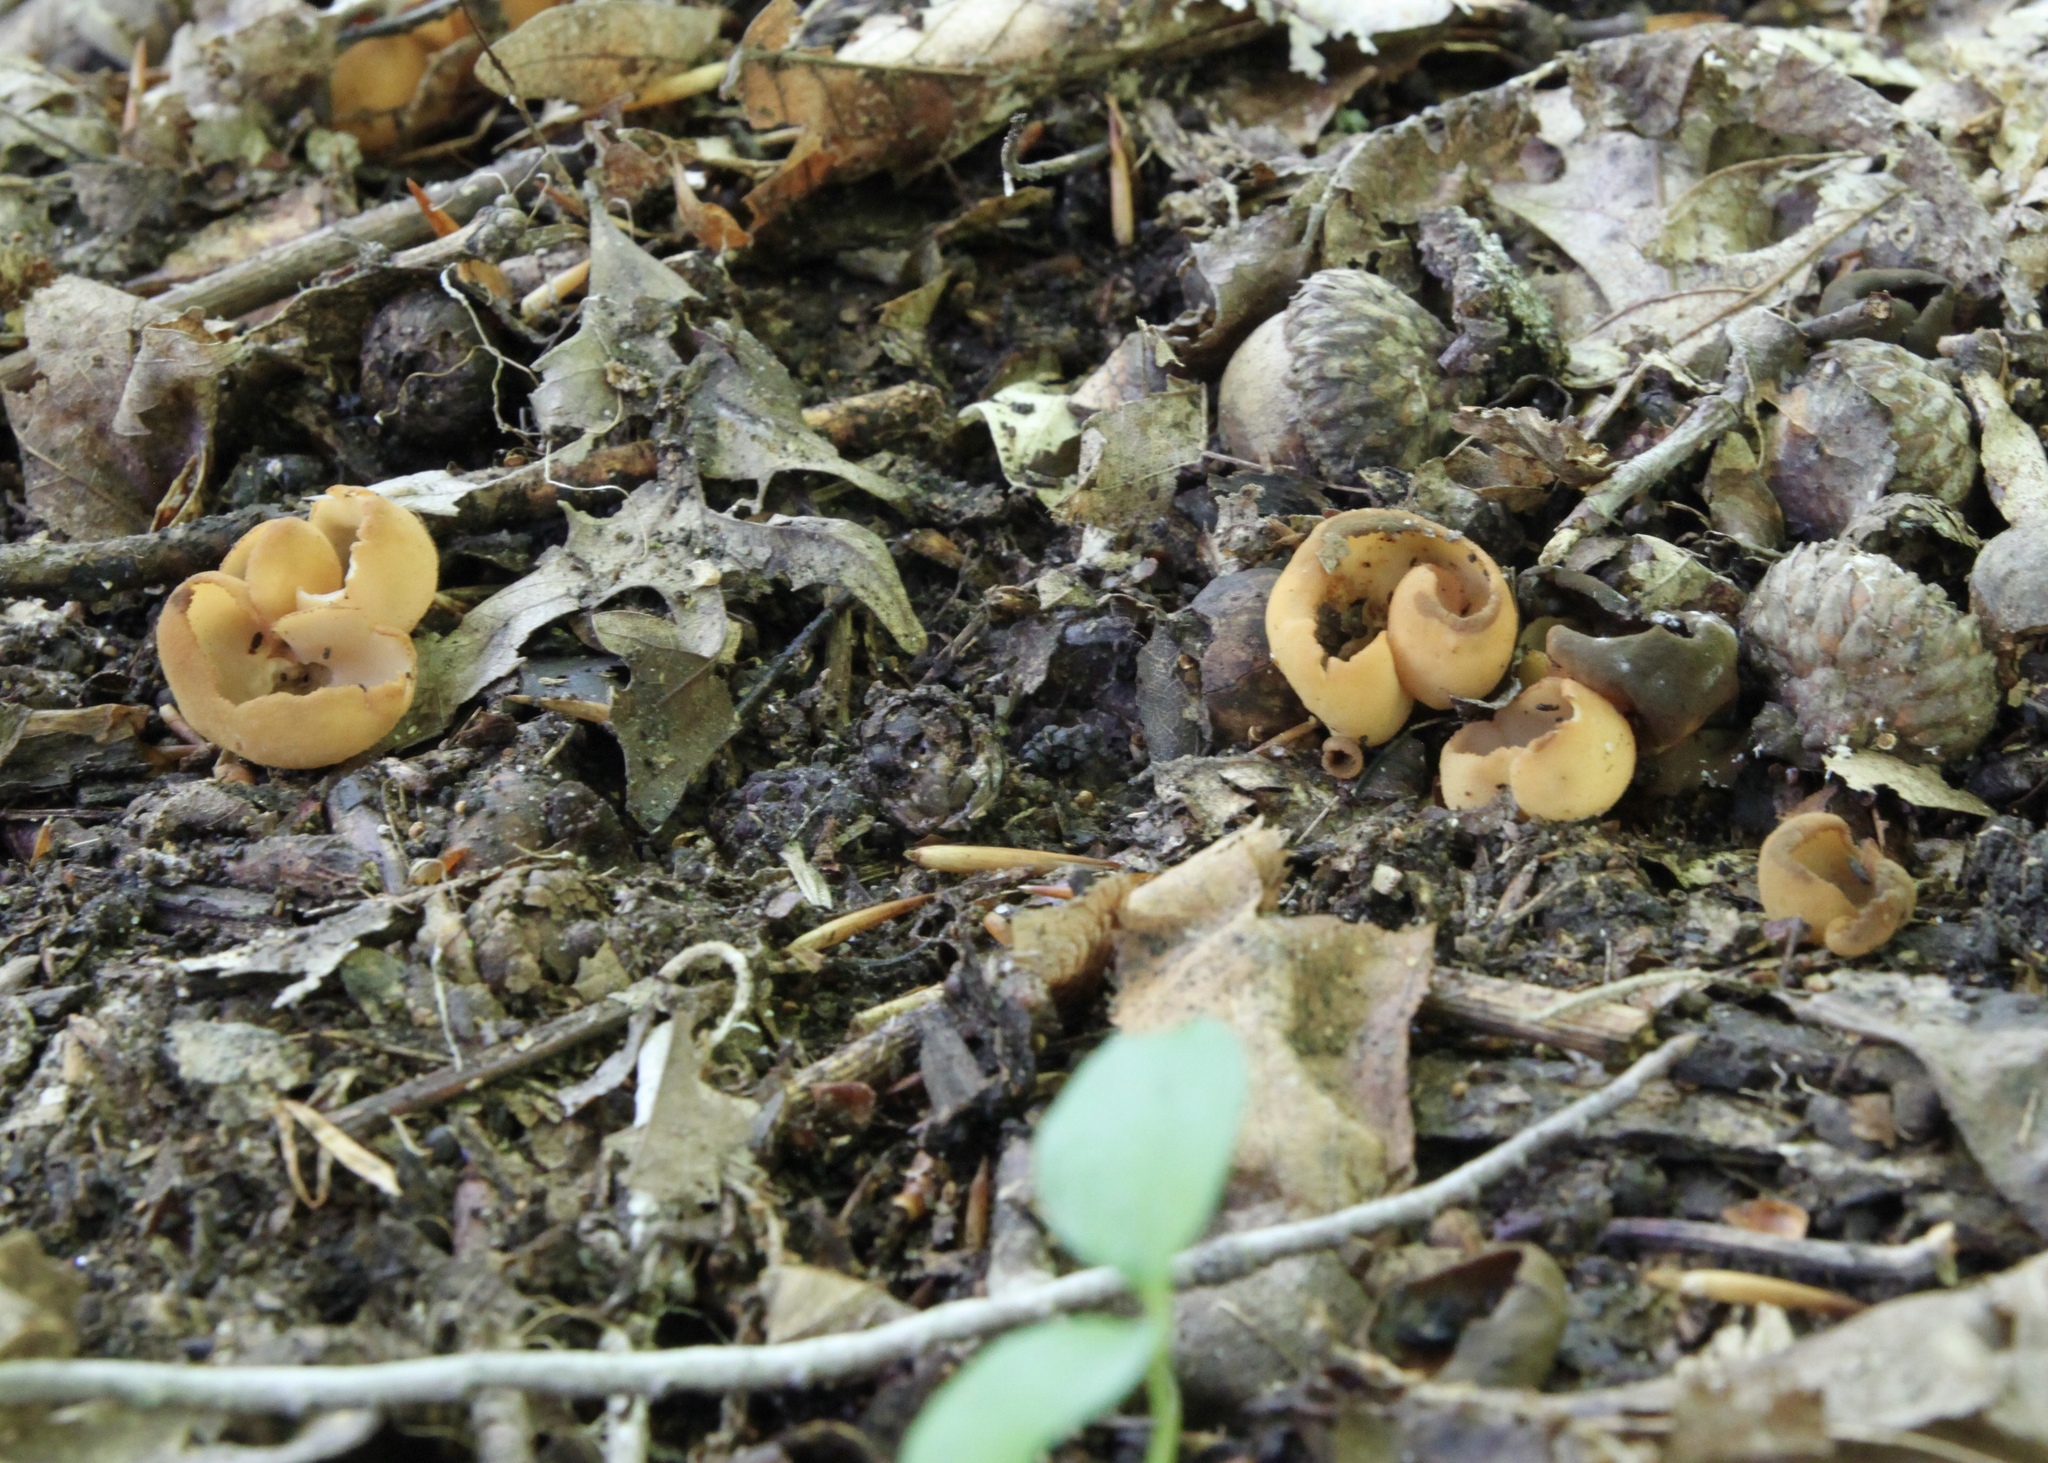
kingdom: Fungi
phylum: Ascomycota
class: Pezizomycetes
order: Pezizales
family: Otideaceae
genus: Otidea
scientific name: Otidea onotica
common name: Hare's ear
